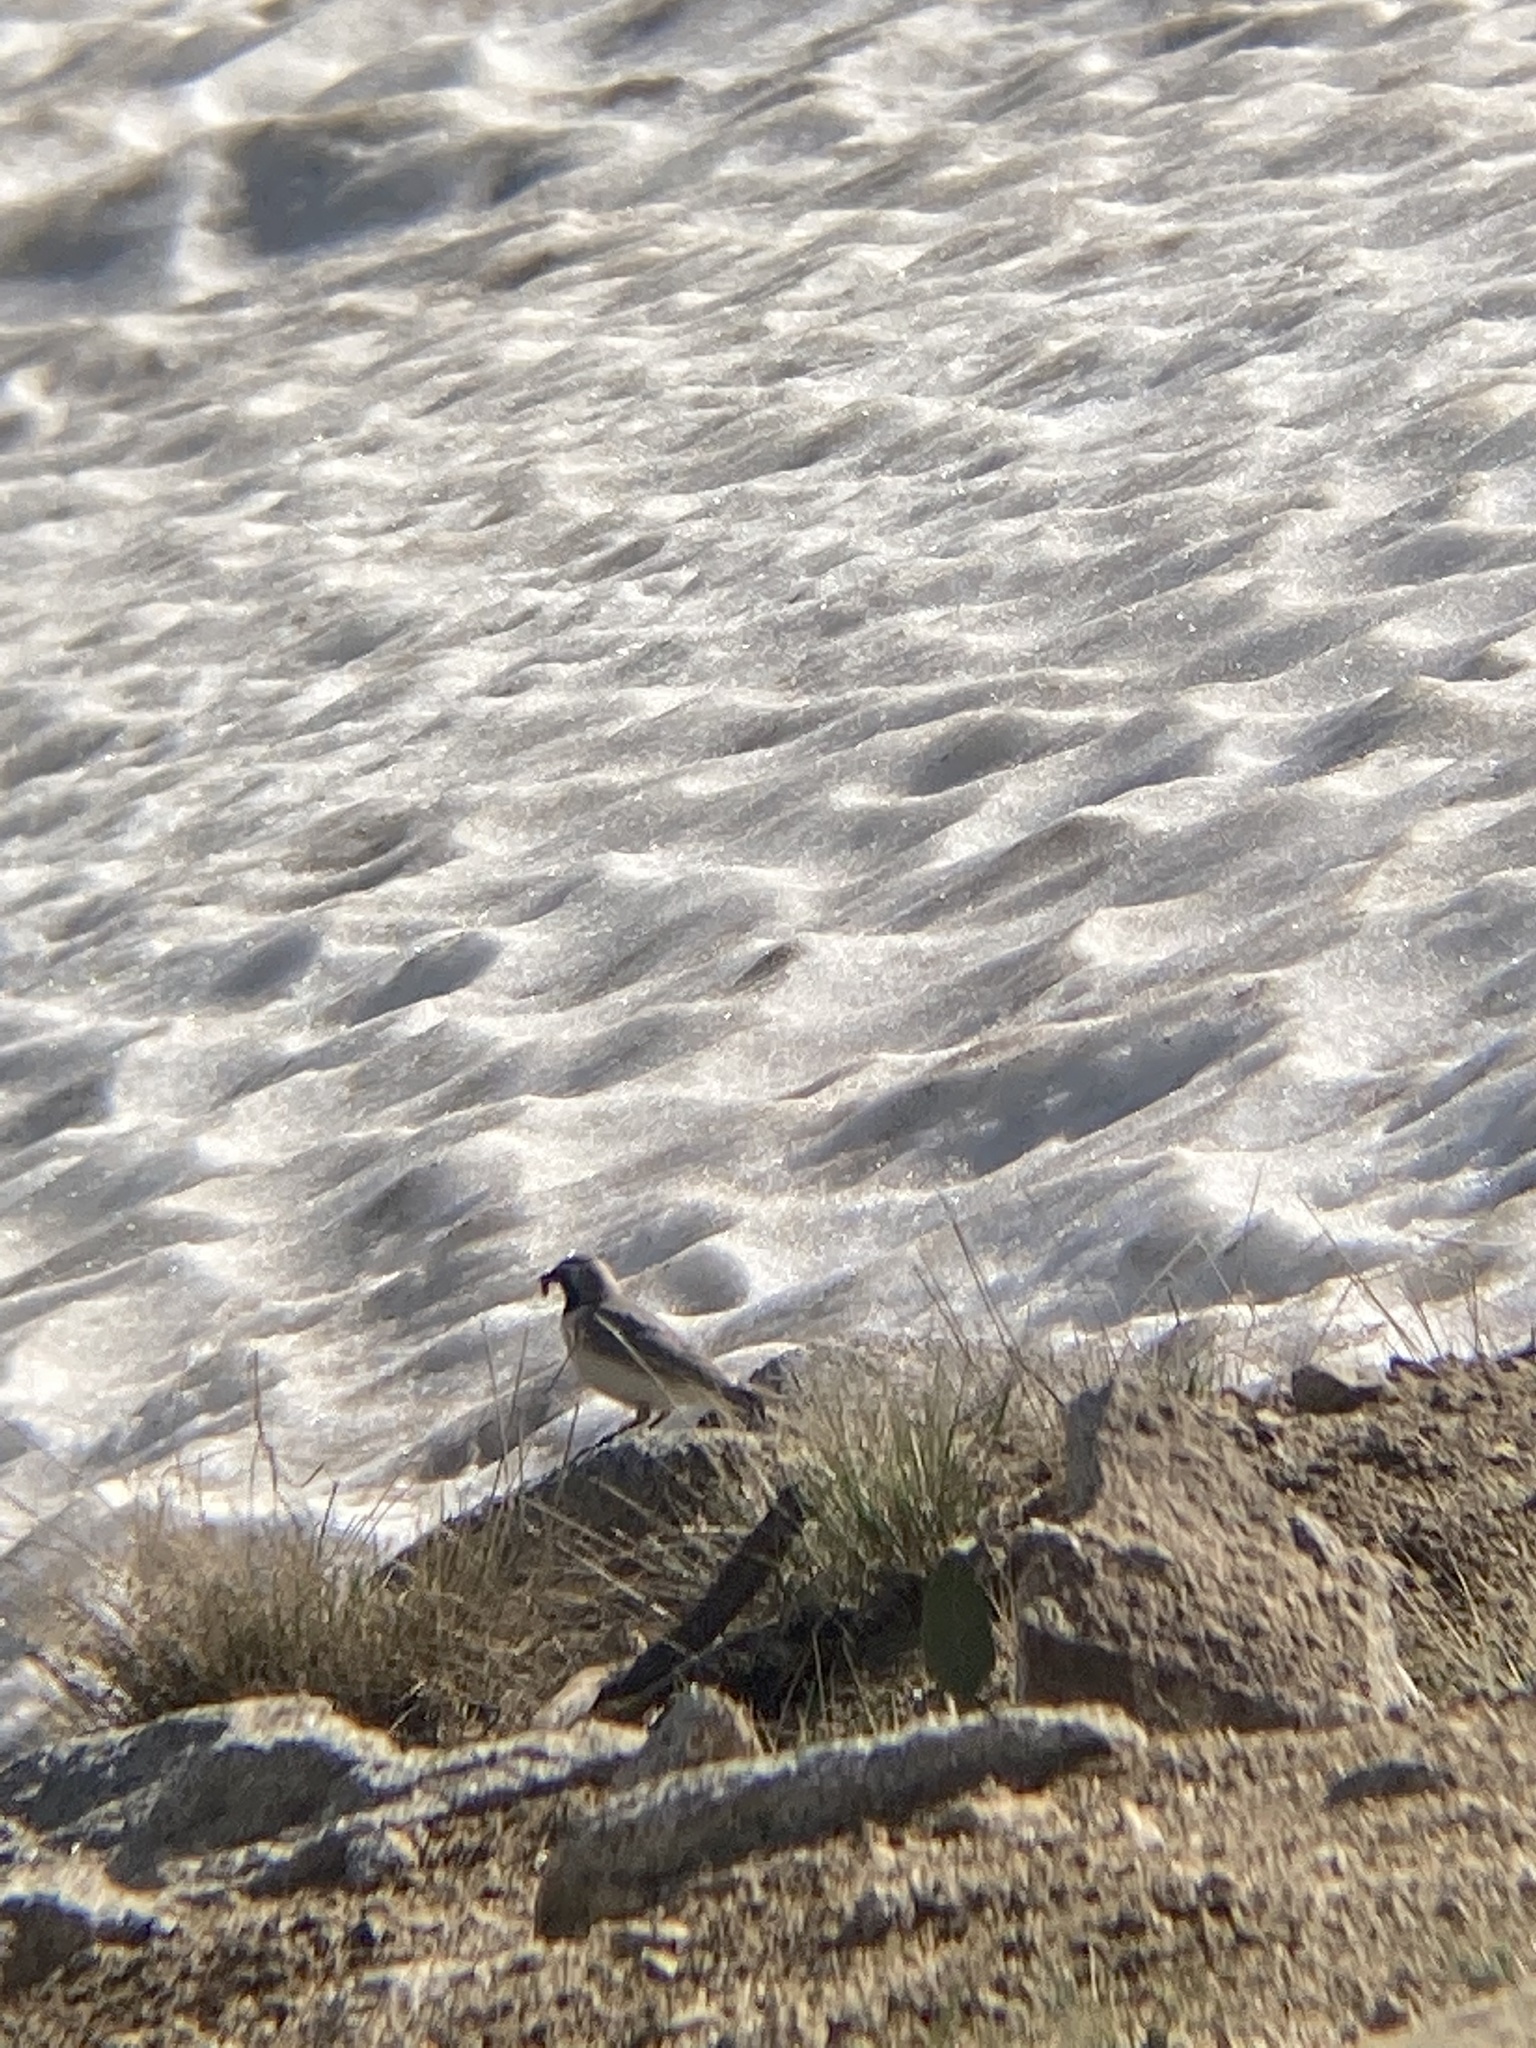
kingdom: Animalia
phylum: Chordata
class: Aves
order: Passeriformes
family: Alaudidae
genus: Eremophila
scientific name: Eremophila alpestris
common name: Horned lark
